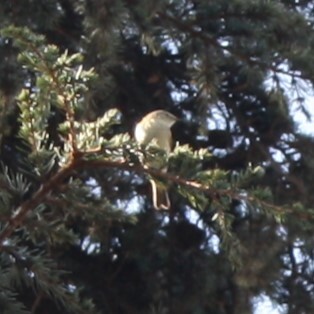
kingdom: Animalia
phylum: Chordata
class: Aves
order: Passeriformes
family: Phylloscopidae
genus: Phylloscopus
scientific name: Phylloscopus trochilus
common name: Willow warbler
